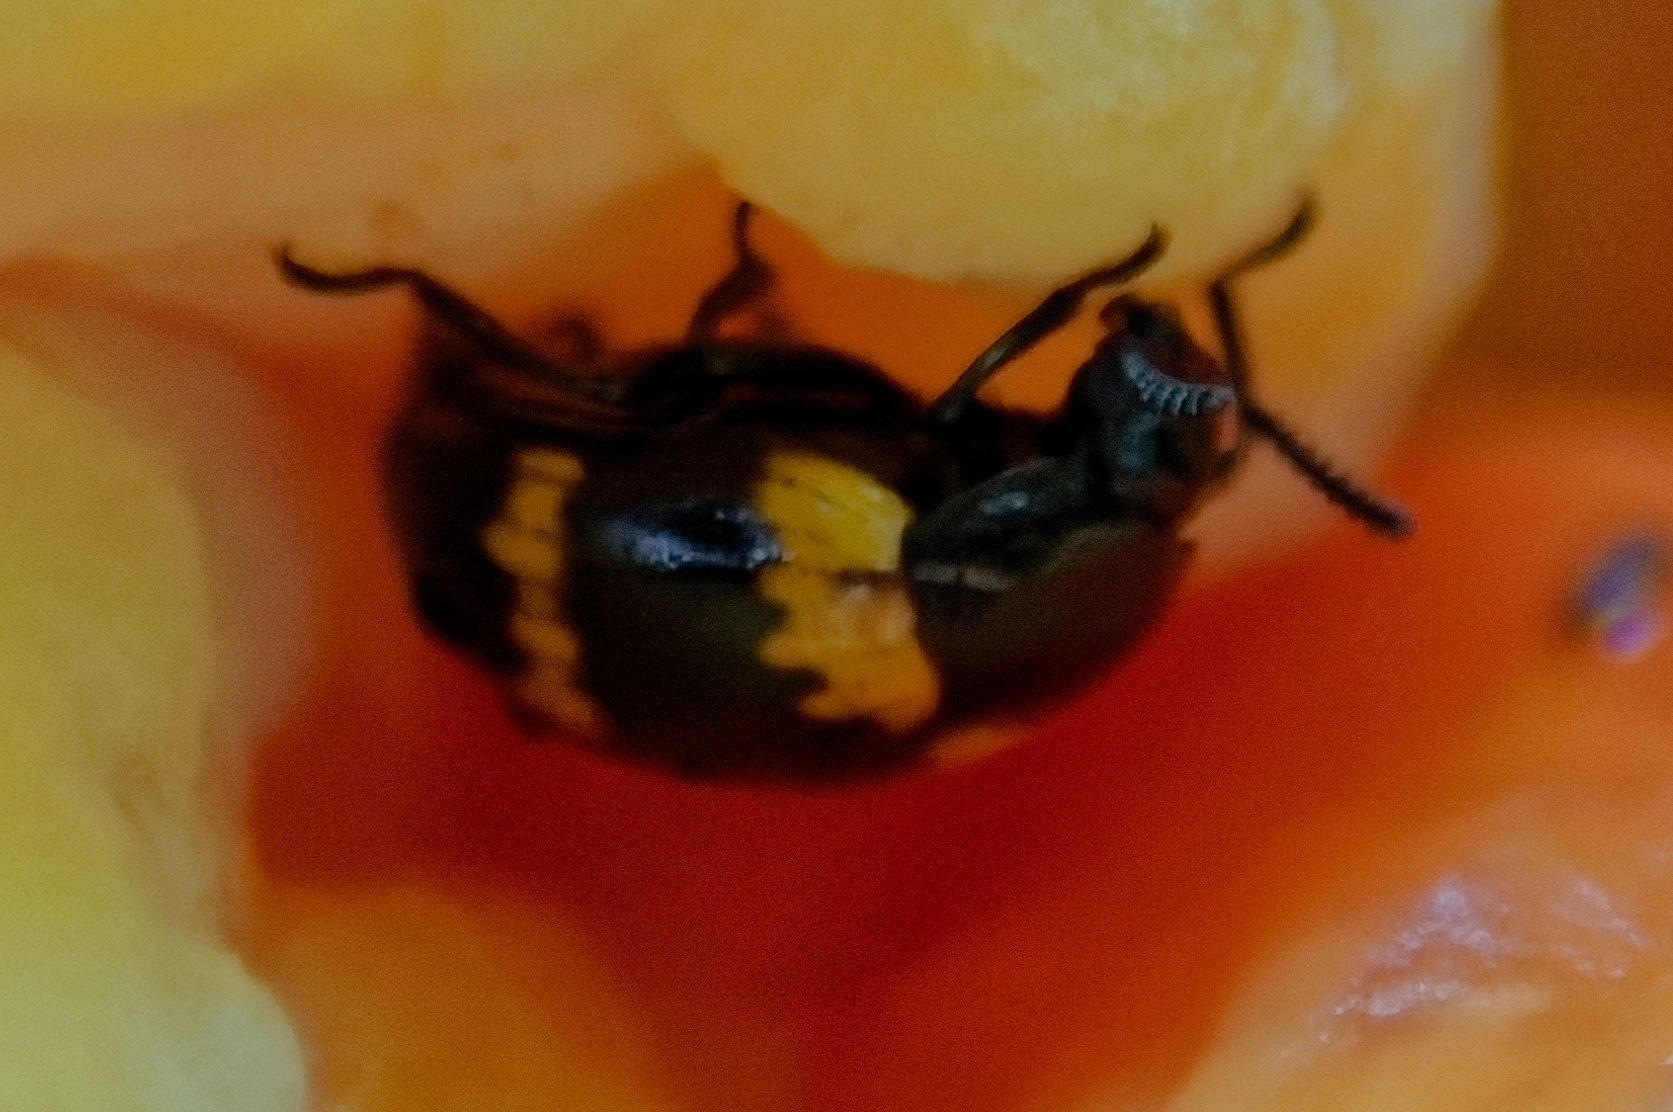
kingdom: Animalia
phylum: Arthropoda
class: Insecta
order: Coleoptera
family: Tenebrionidae
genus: Diaperis
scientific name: Diaperis boleti
